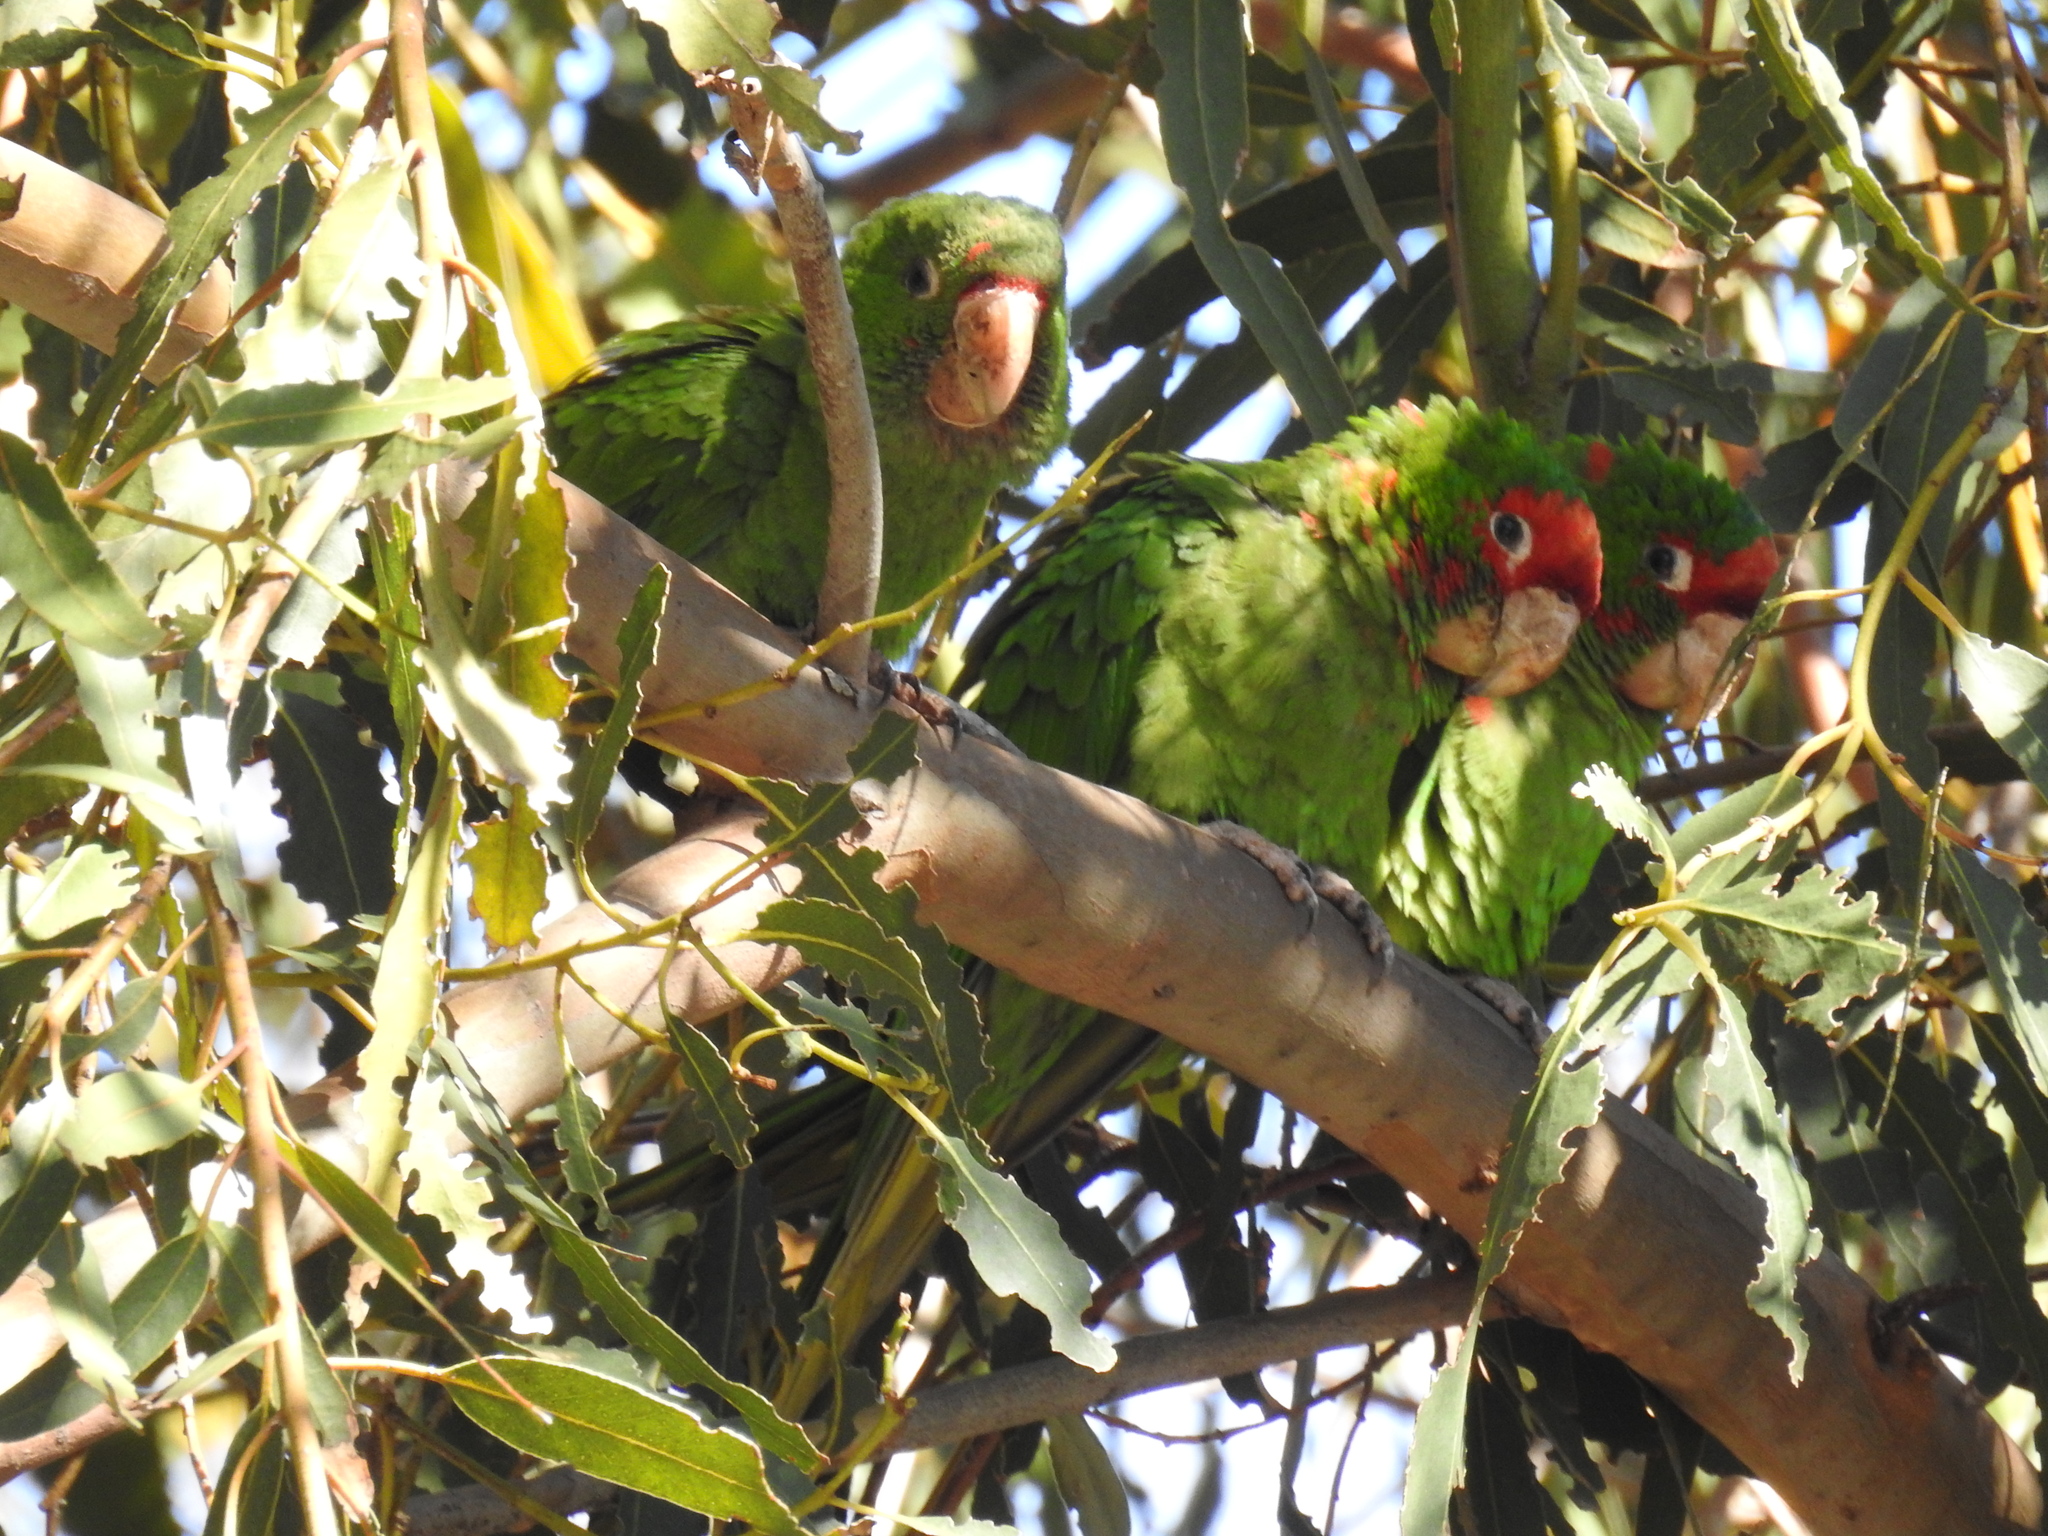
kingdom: Animalia
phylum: Chordata
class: Aves
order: Psittaciformes
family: Psittacidae
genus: Aratinga
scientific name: Aratinga mitrata
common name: Mitred parakeet
